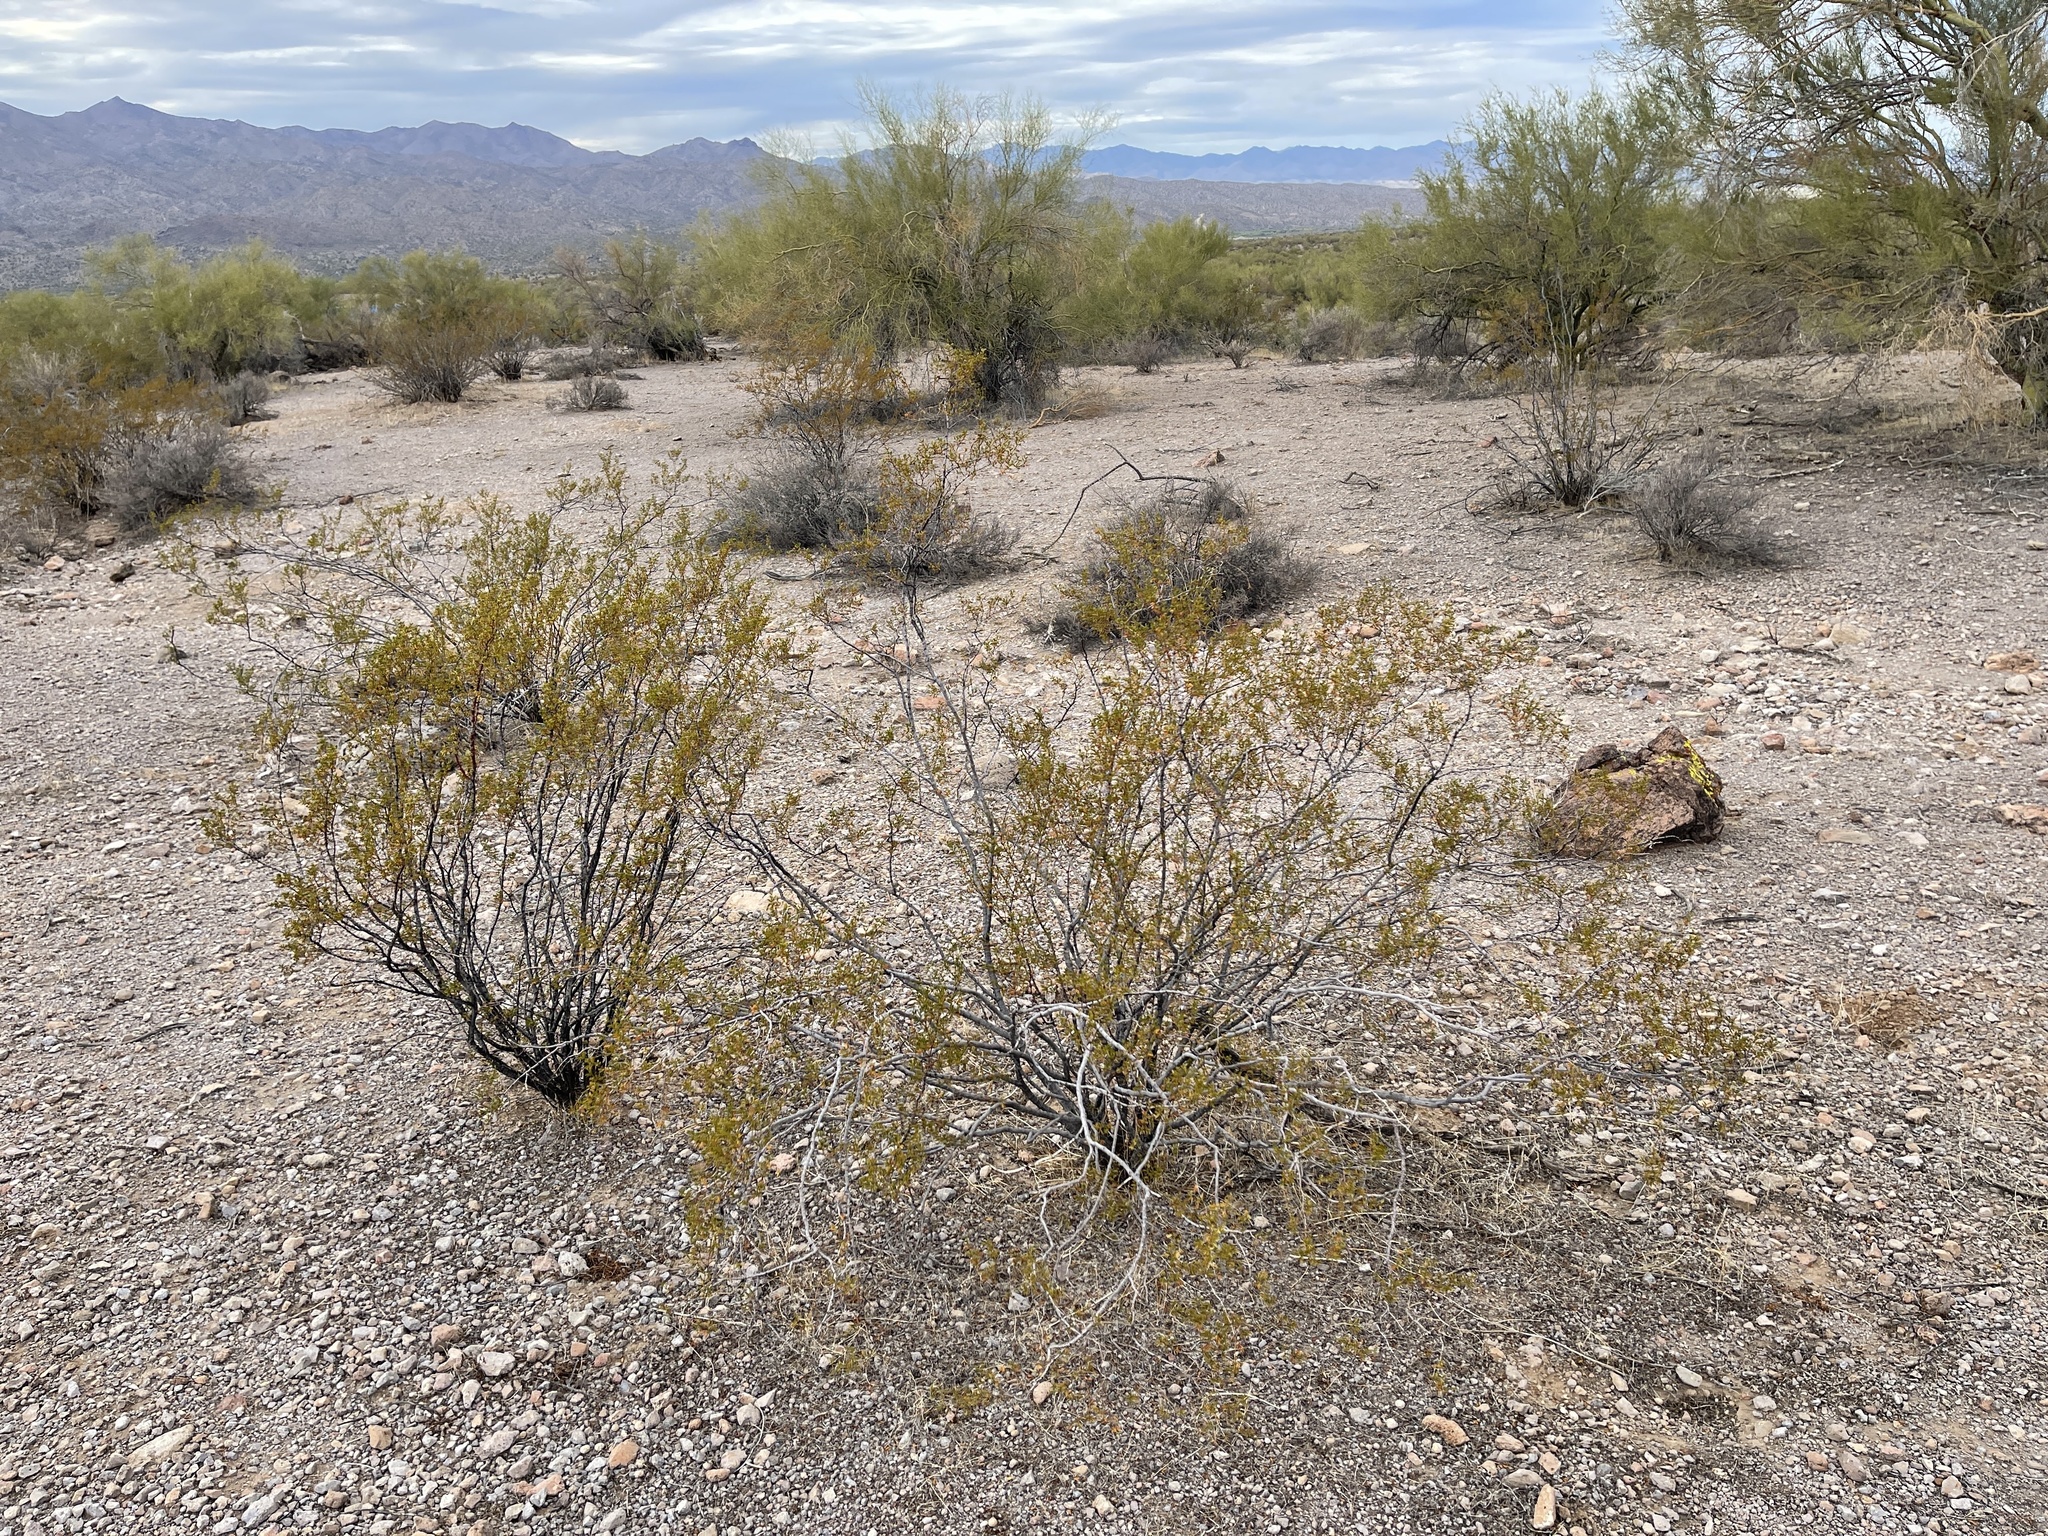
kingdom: Plantae
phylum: Tracheophyta
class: Magnoliopsida
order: Zygophyllales
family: Zygophyllaceae
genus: Larrea
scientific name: Larrea tridentata
